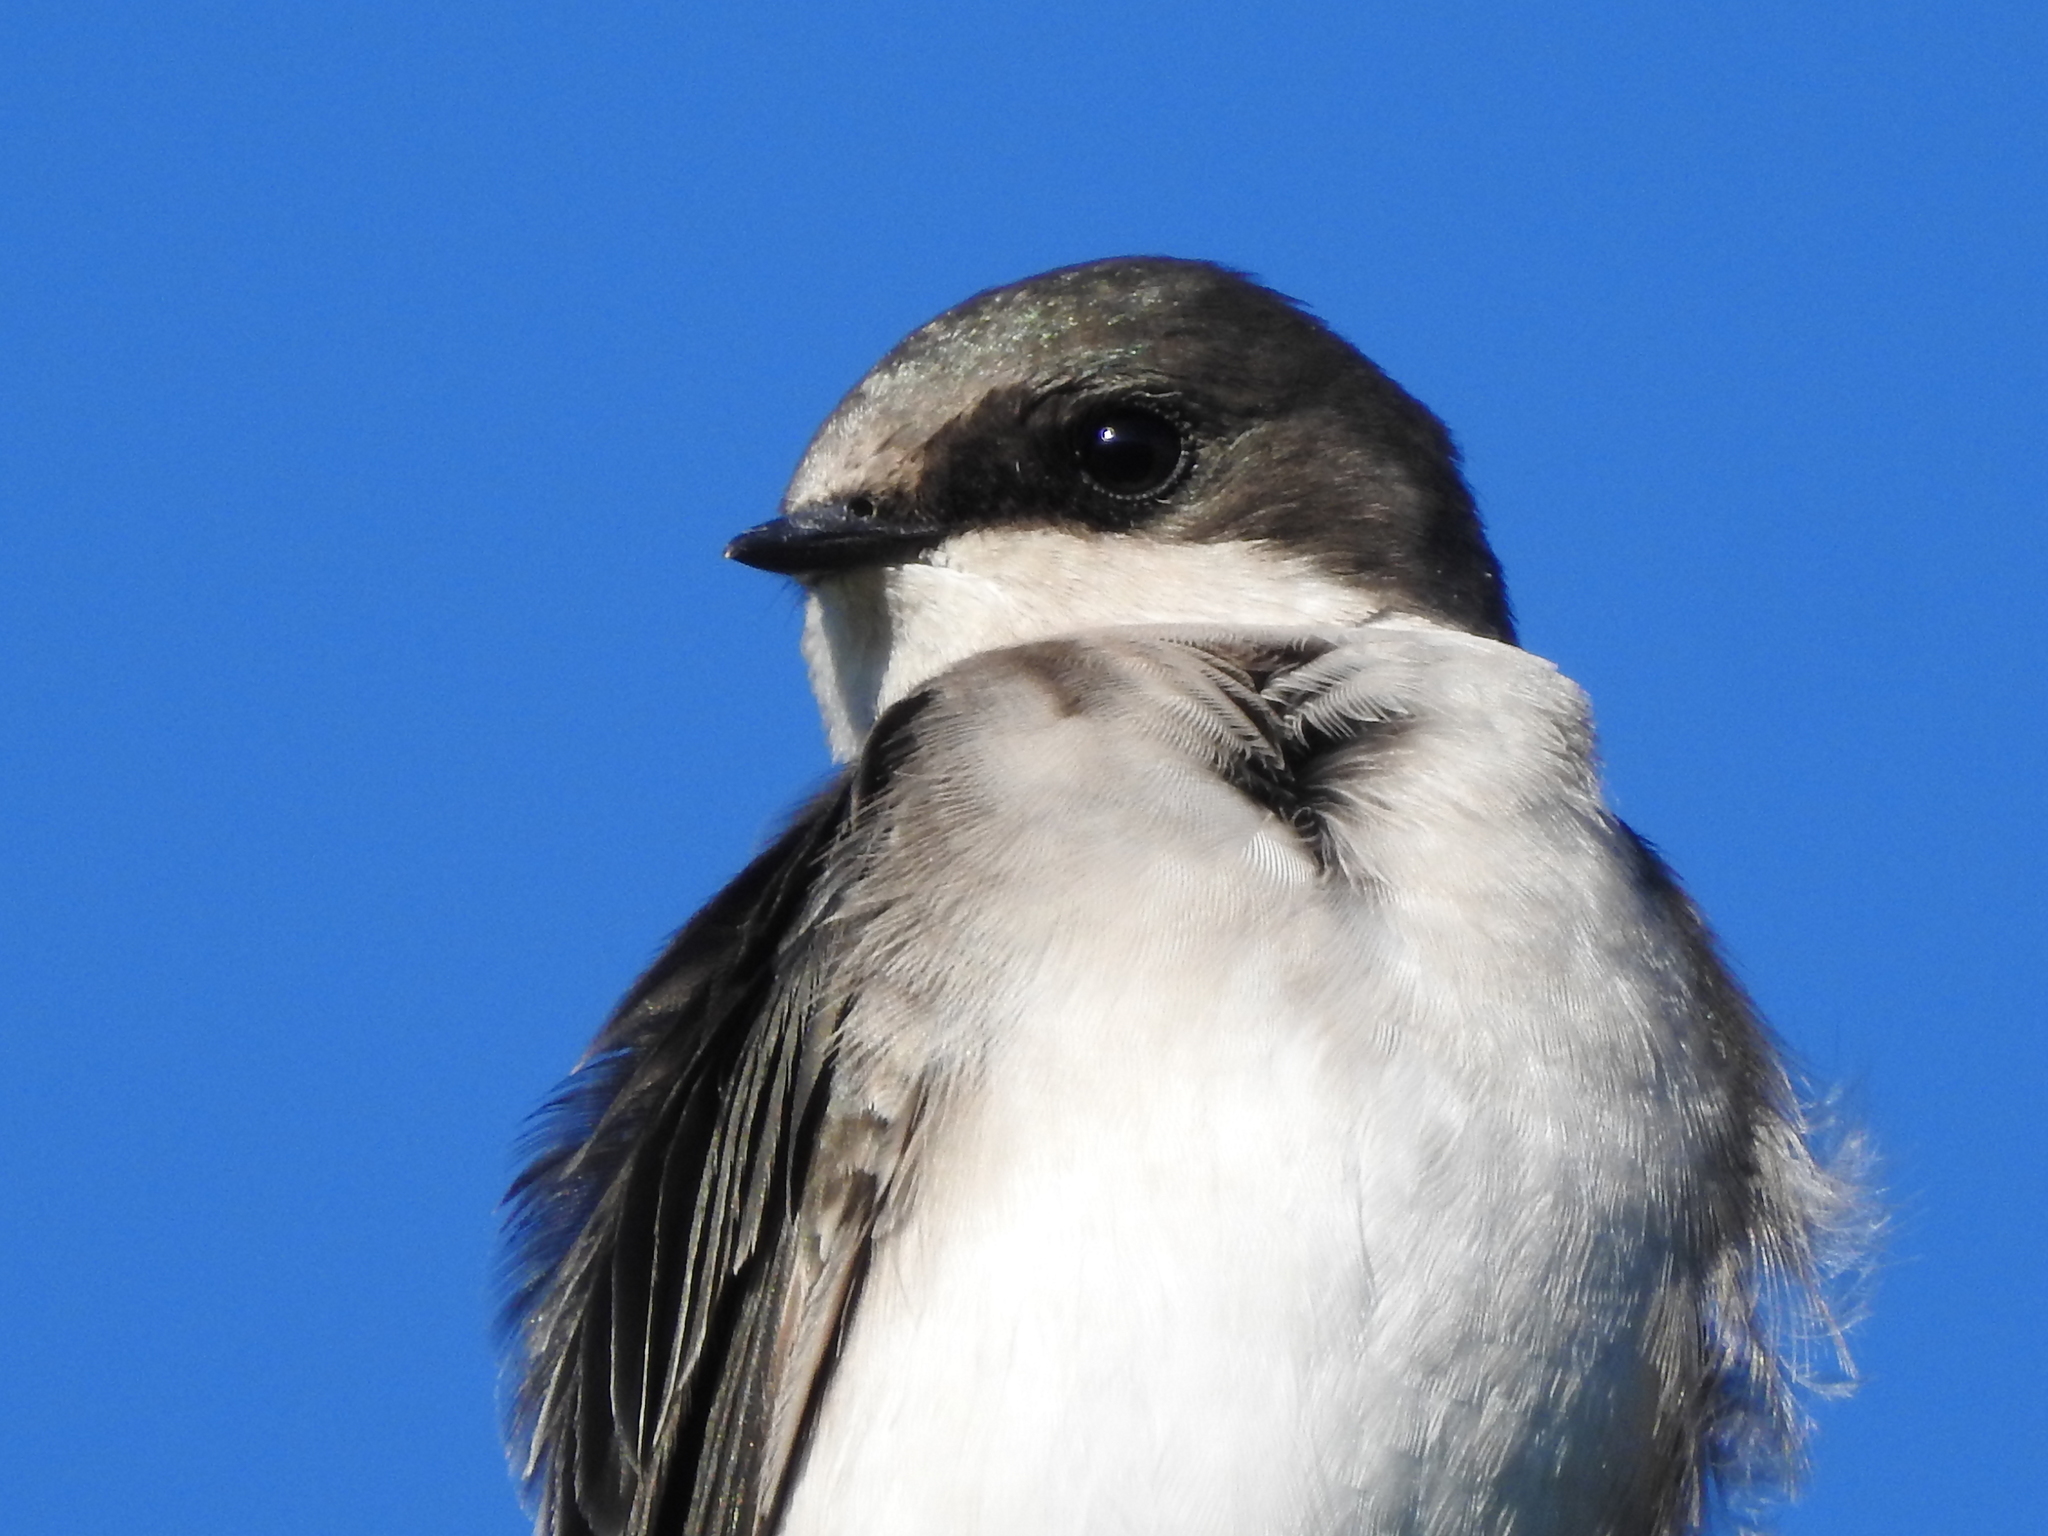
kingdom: Animalia
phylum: Chordata
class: Aves
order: Passeriformes
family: Hirundinidae
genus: Tachycineta
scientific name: Tachycineta bicolor
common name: Tree swallow
